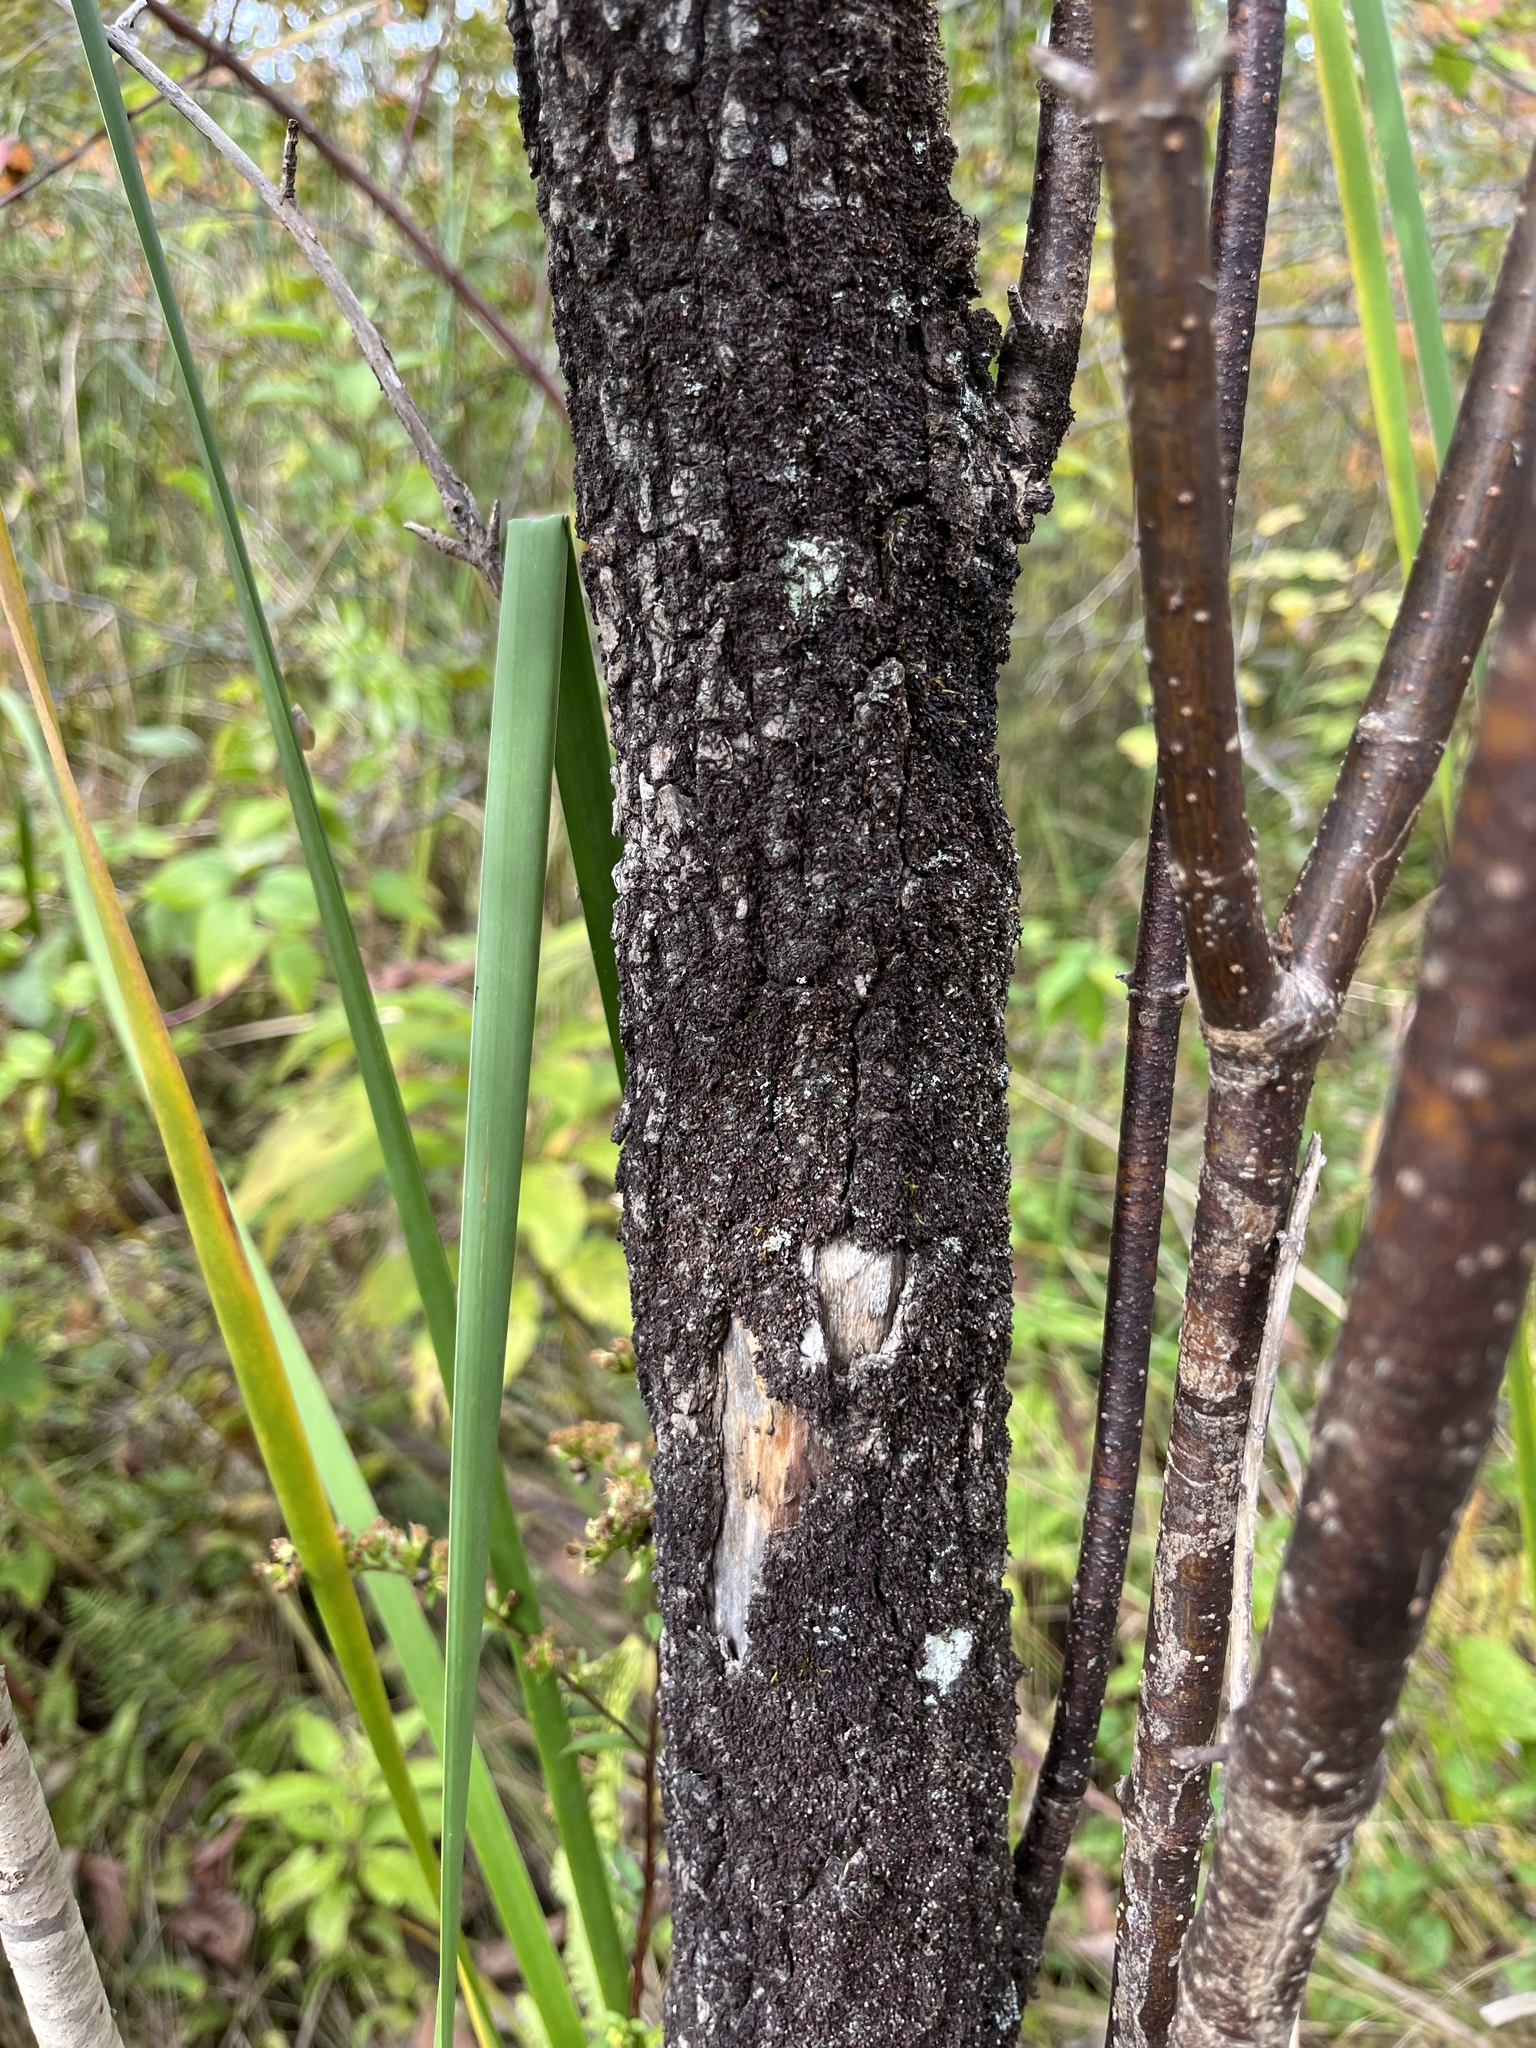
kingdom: Plantae
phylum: Tracheophyta
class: Magnoliopsida
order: Dipsacales
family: Viburnaceae
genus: Viburnum
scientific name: Viburnum prunifolium
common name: Black haw
